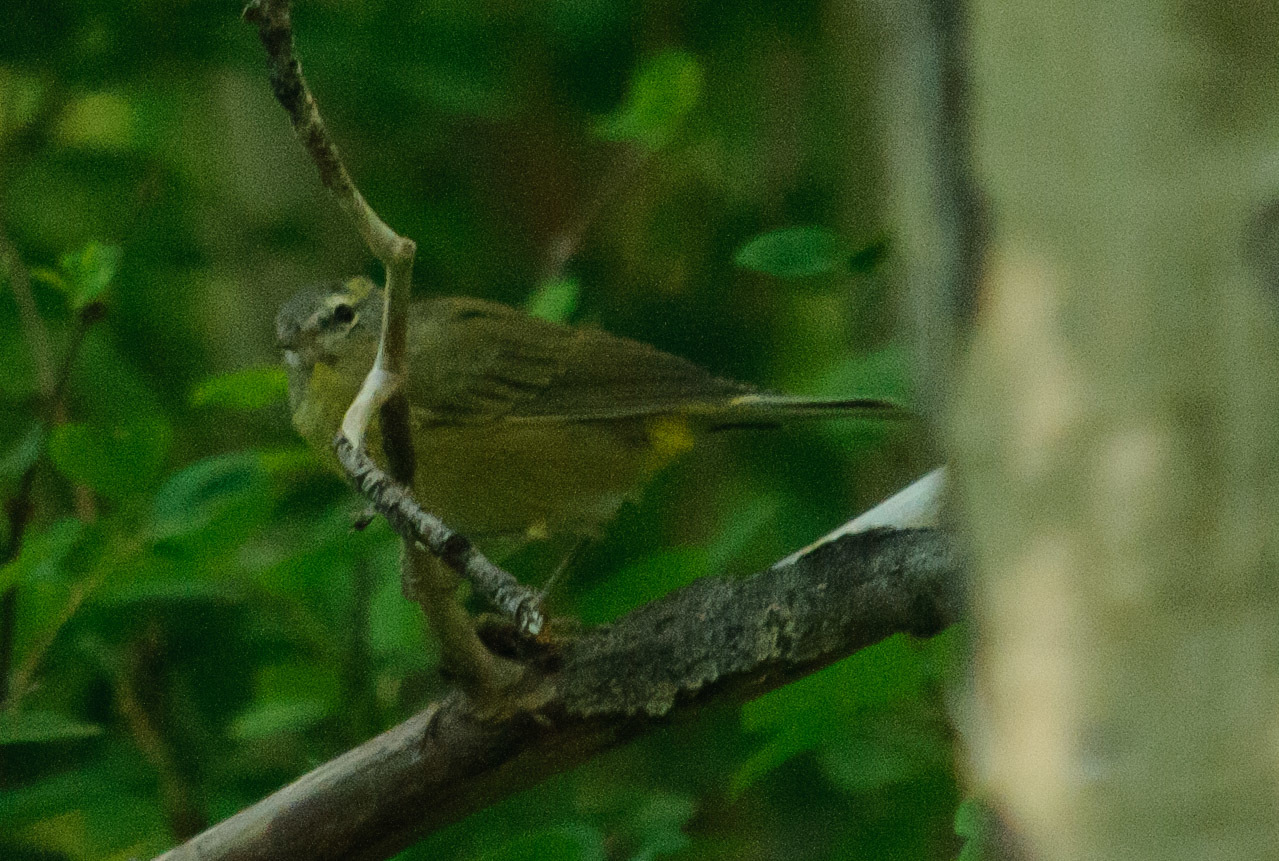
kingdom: Animalia
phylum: Chordata
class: Aves
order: Passeriformes
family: Parulidae
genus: Leiothlypis
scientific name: Leiothlypis celata
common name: Orange-crowned warbler
